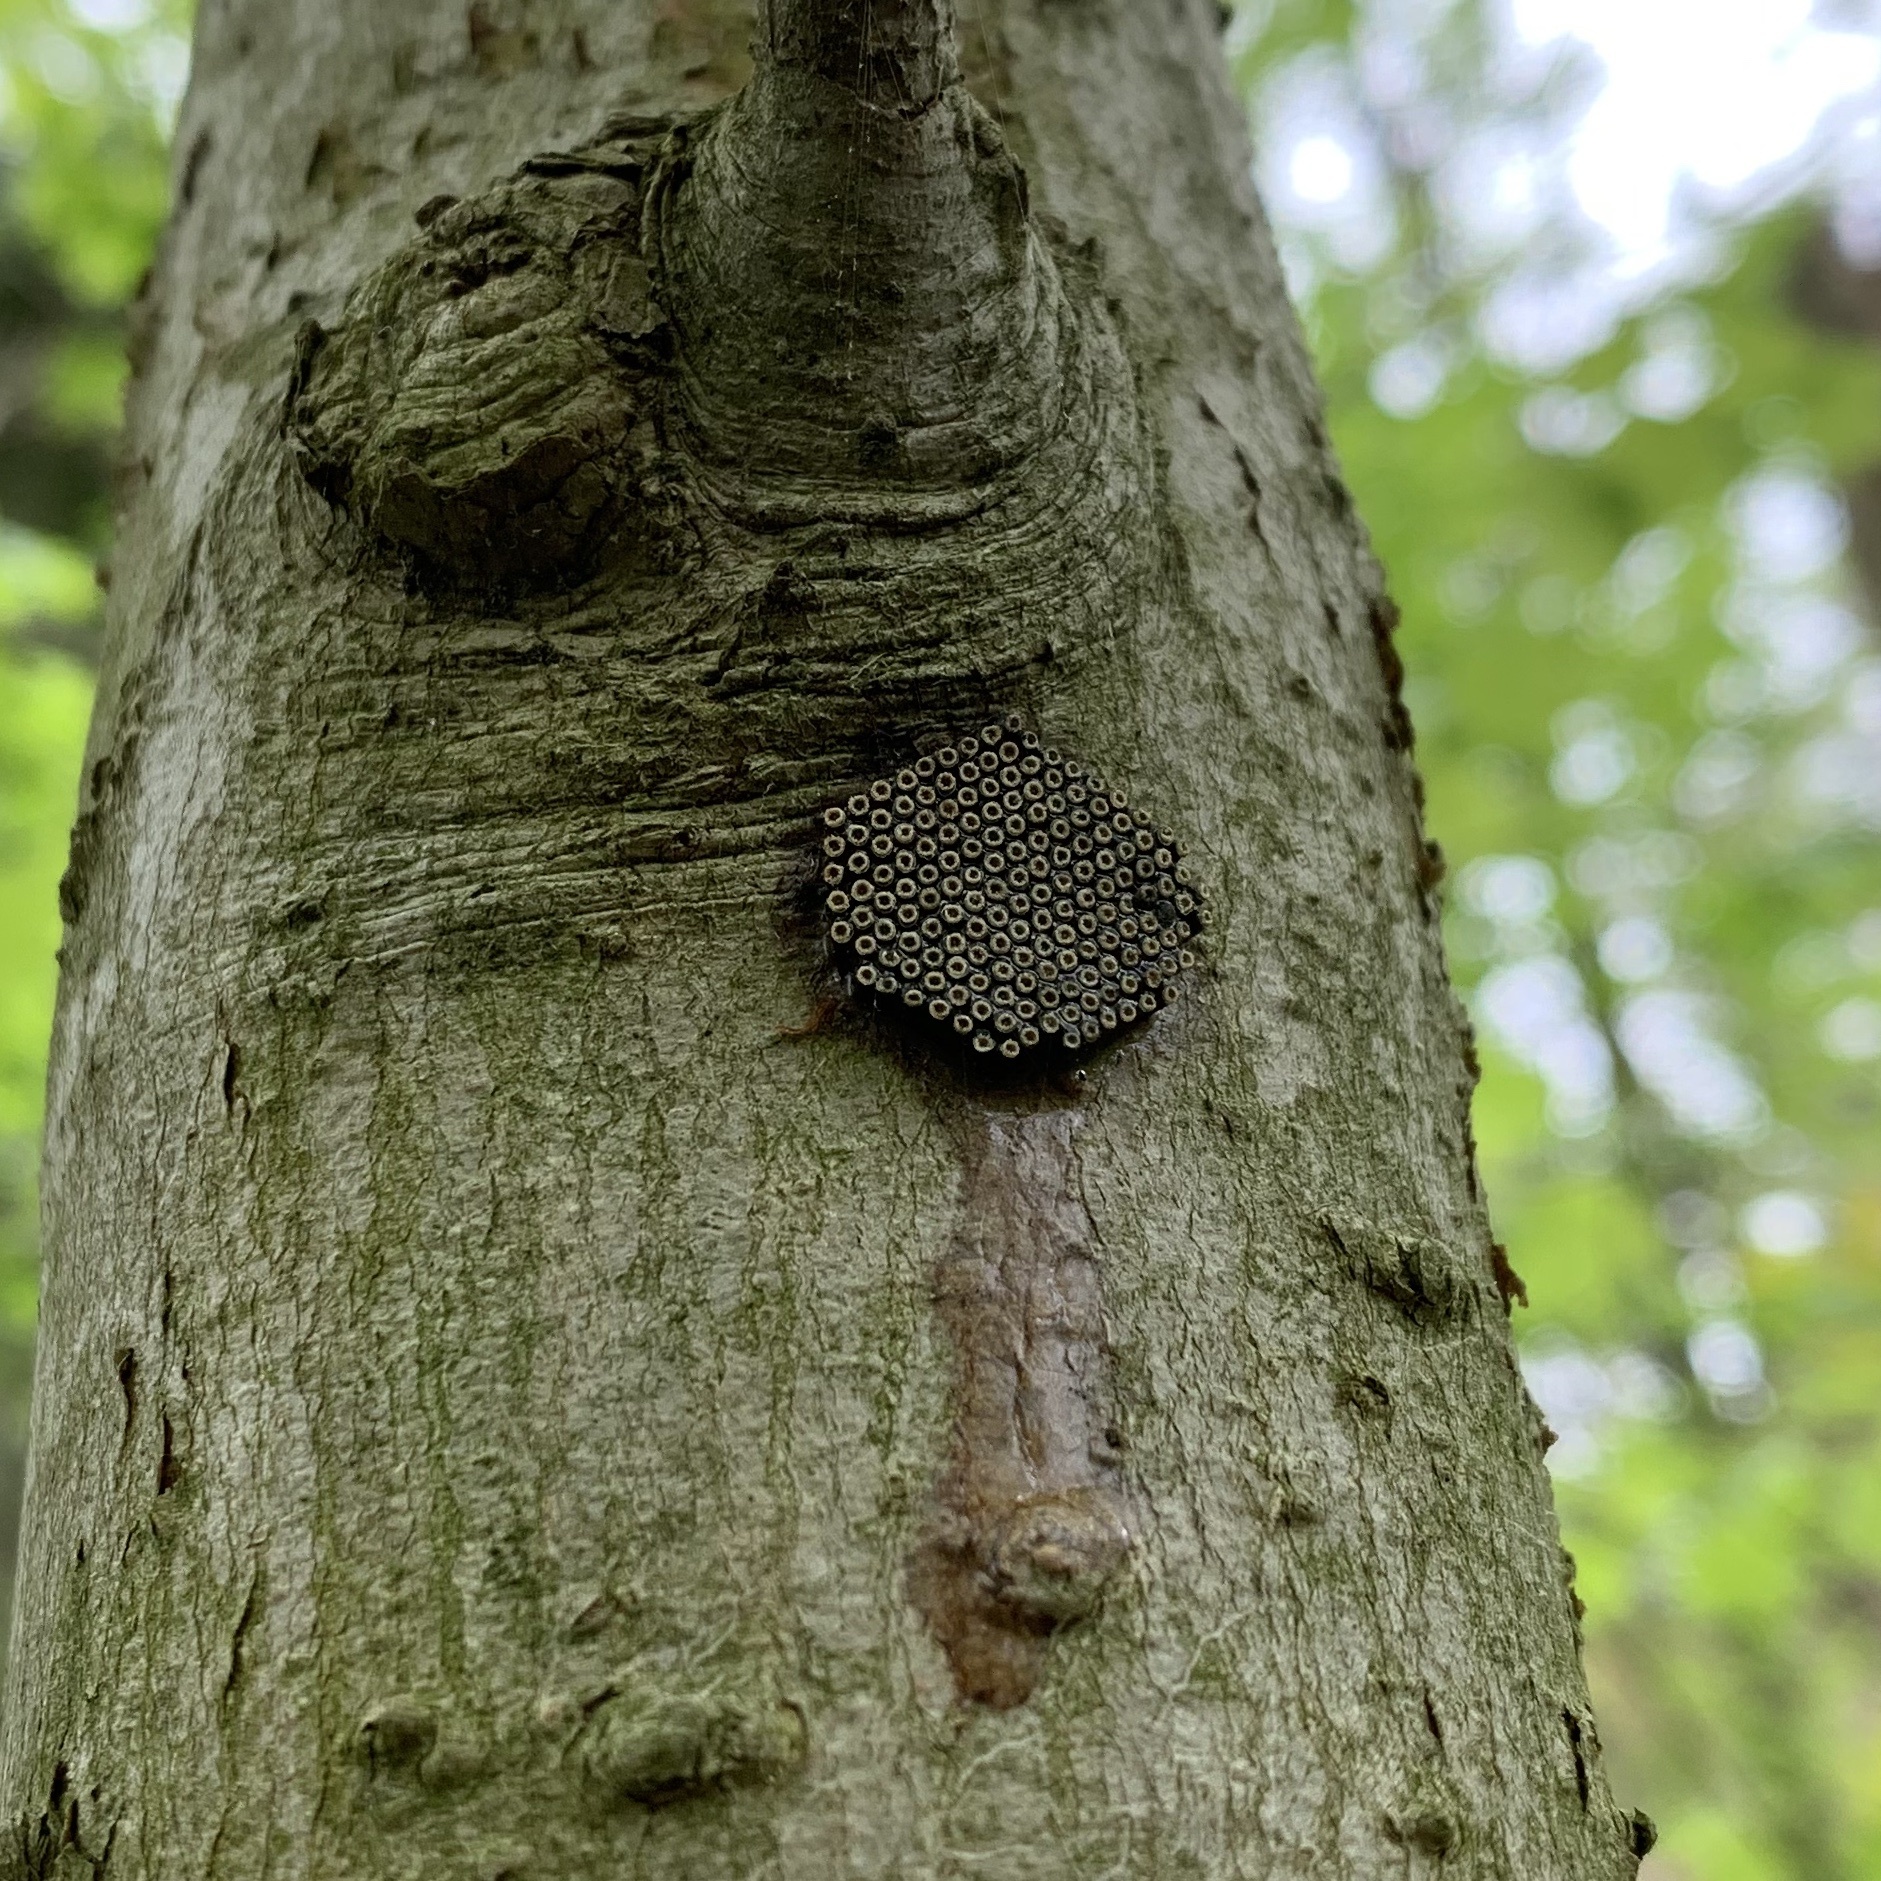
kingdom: Animalia
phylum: Arthropoda
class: Insecta
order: Hemiptera
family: Reduviidae
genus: Arilus
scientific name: Arilus cristatus
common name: North american wheel bug
